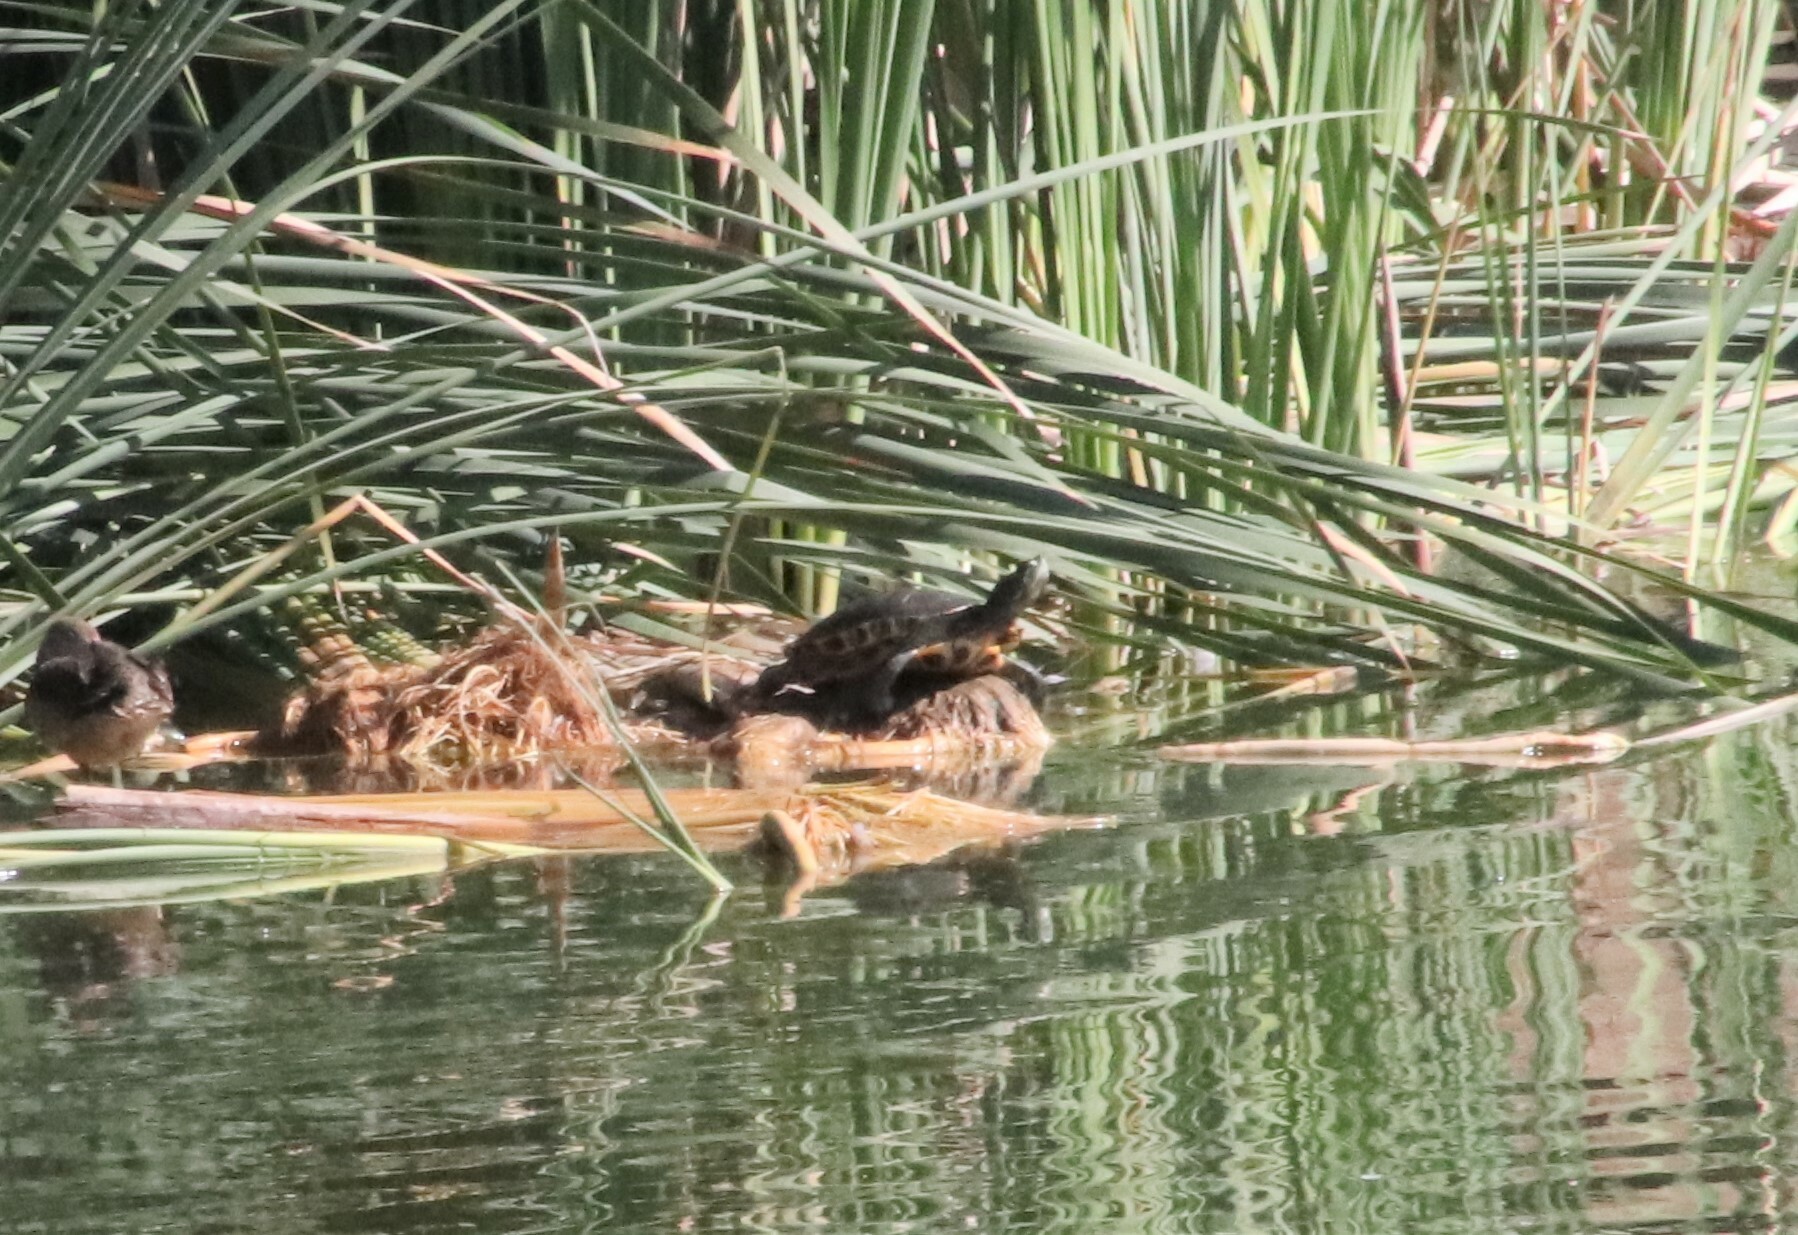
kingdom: Animalia
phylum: Chordata
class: Testudines
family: Emydidae
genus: Trachemys
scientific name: Trachemys scripta
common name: Slider
